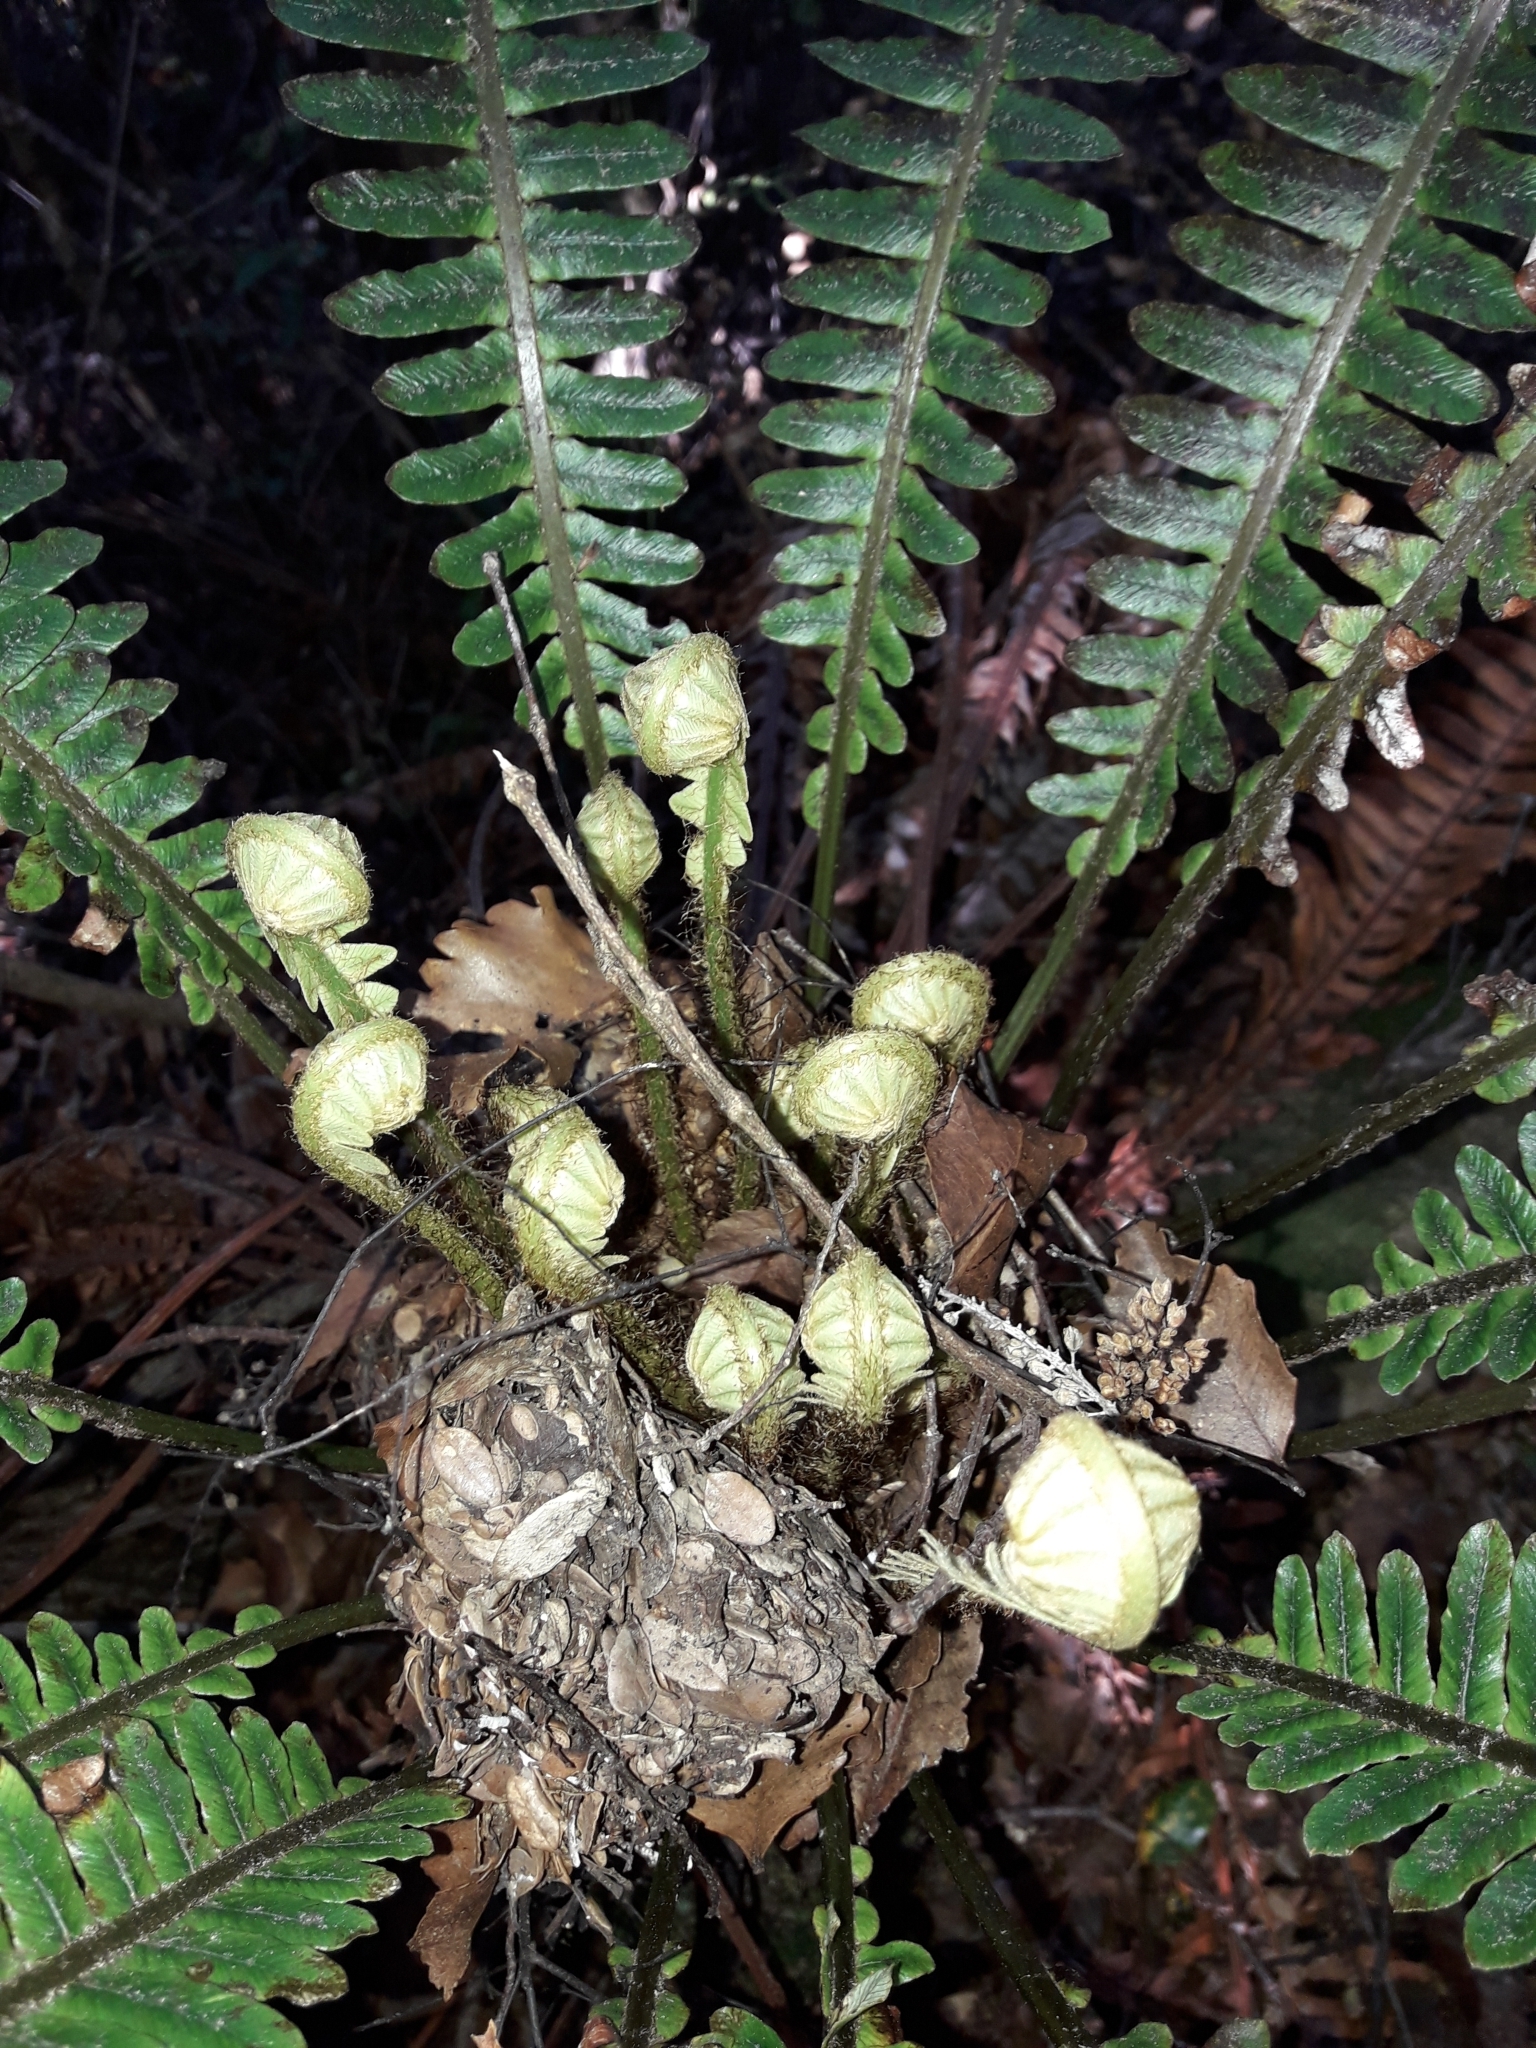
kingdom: Plantae
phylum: Tracheophyta
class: Polypodiopsida
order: Polypodiales
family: Blechnaceae
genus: Lomaria
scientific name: Lomaria discolor
